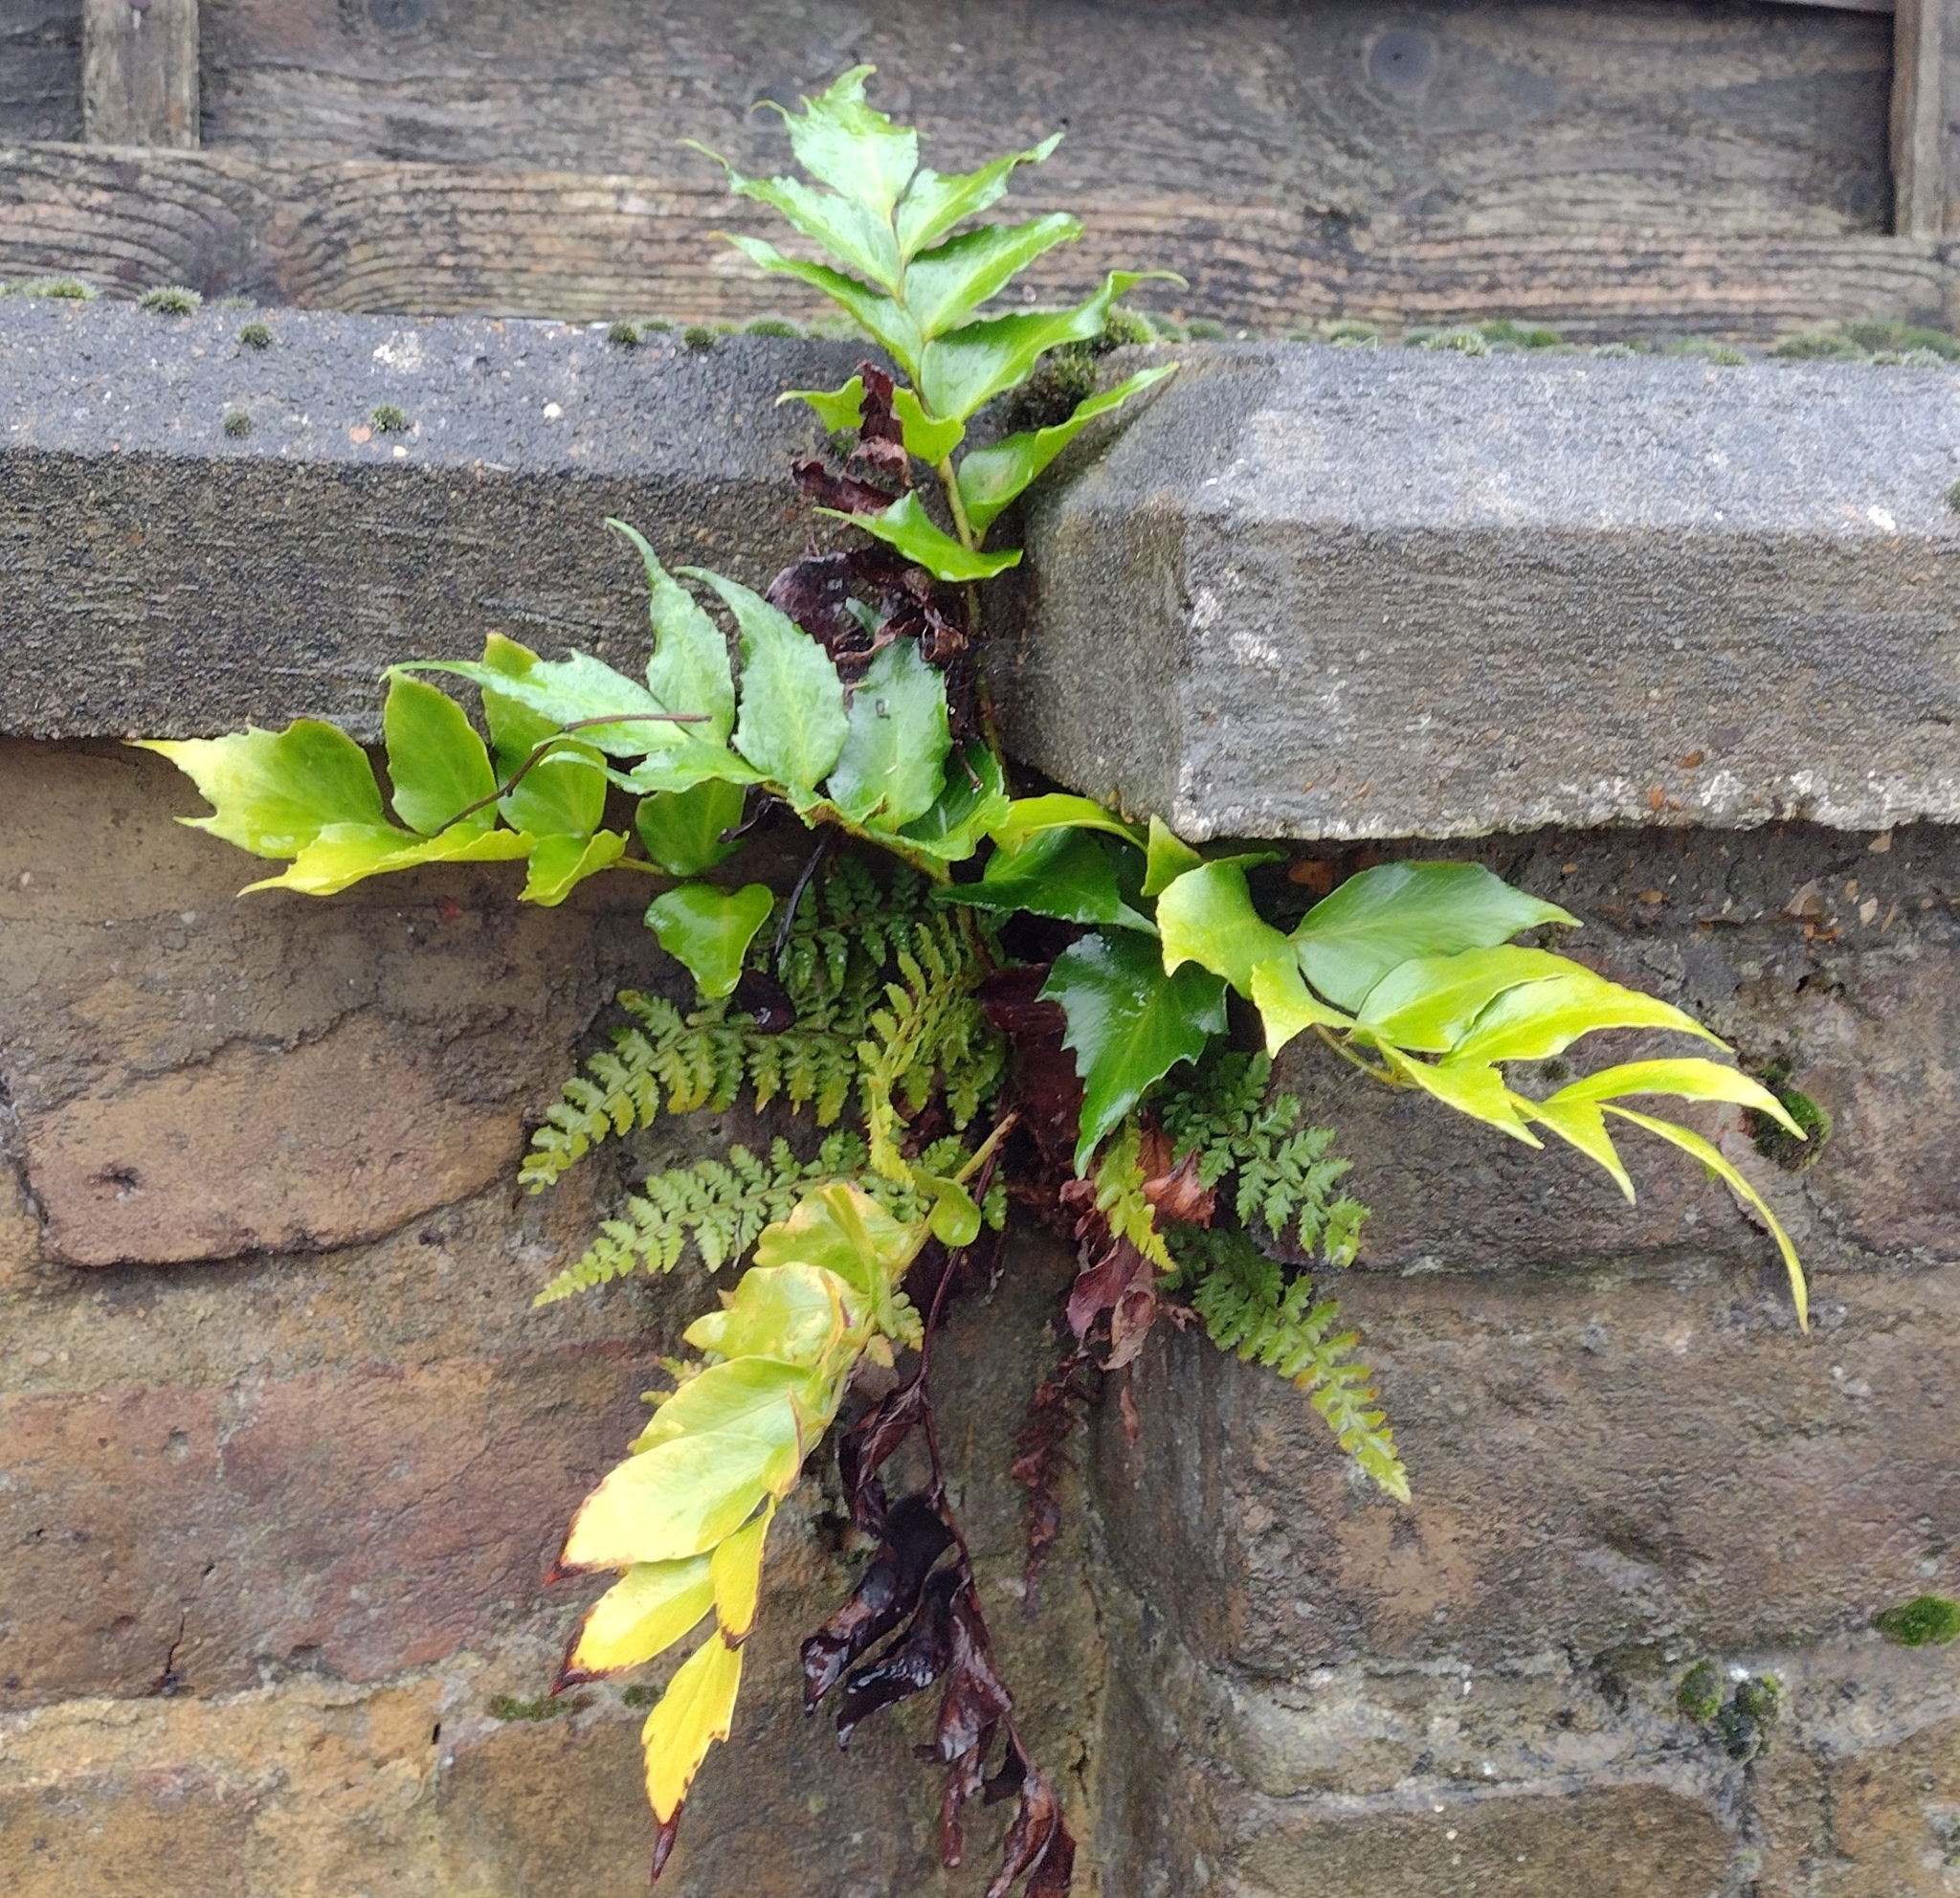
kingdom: Plantae
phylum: Tracheophyta
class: Polypodiopsida
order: Polypodiales
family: Dryopteridaceae
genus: Cyrtomium
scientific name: Cyrtomium falcatum
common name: House holly-fern
